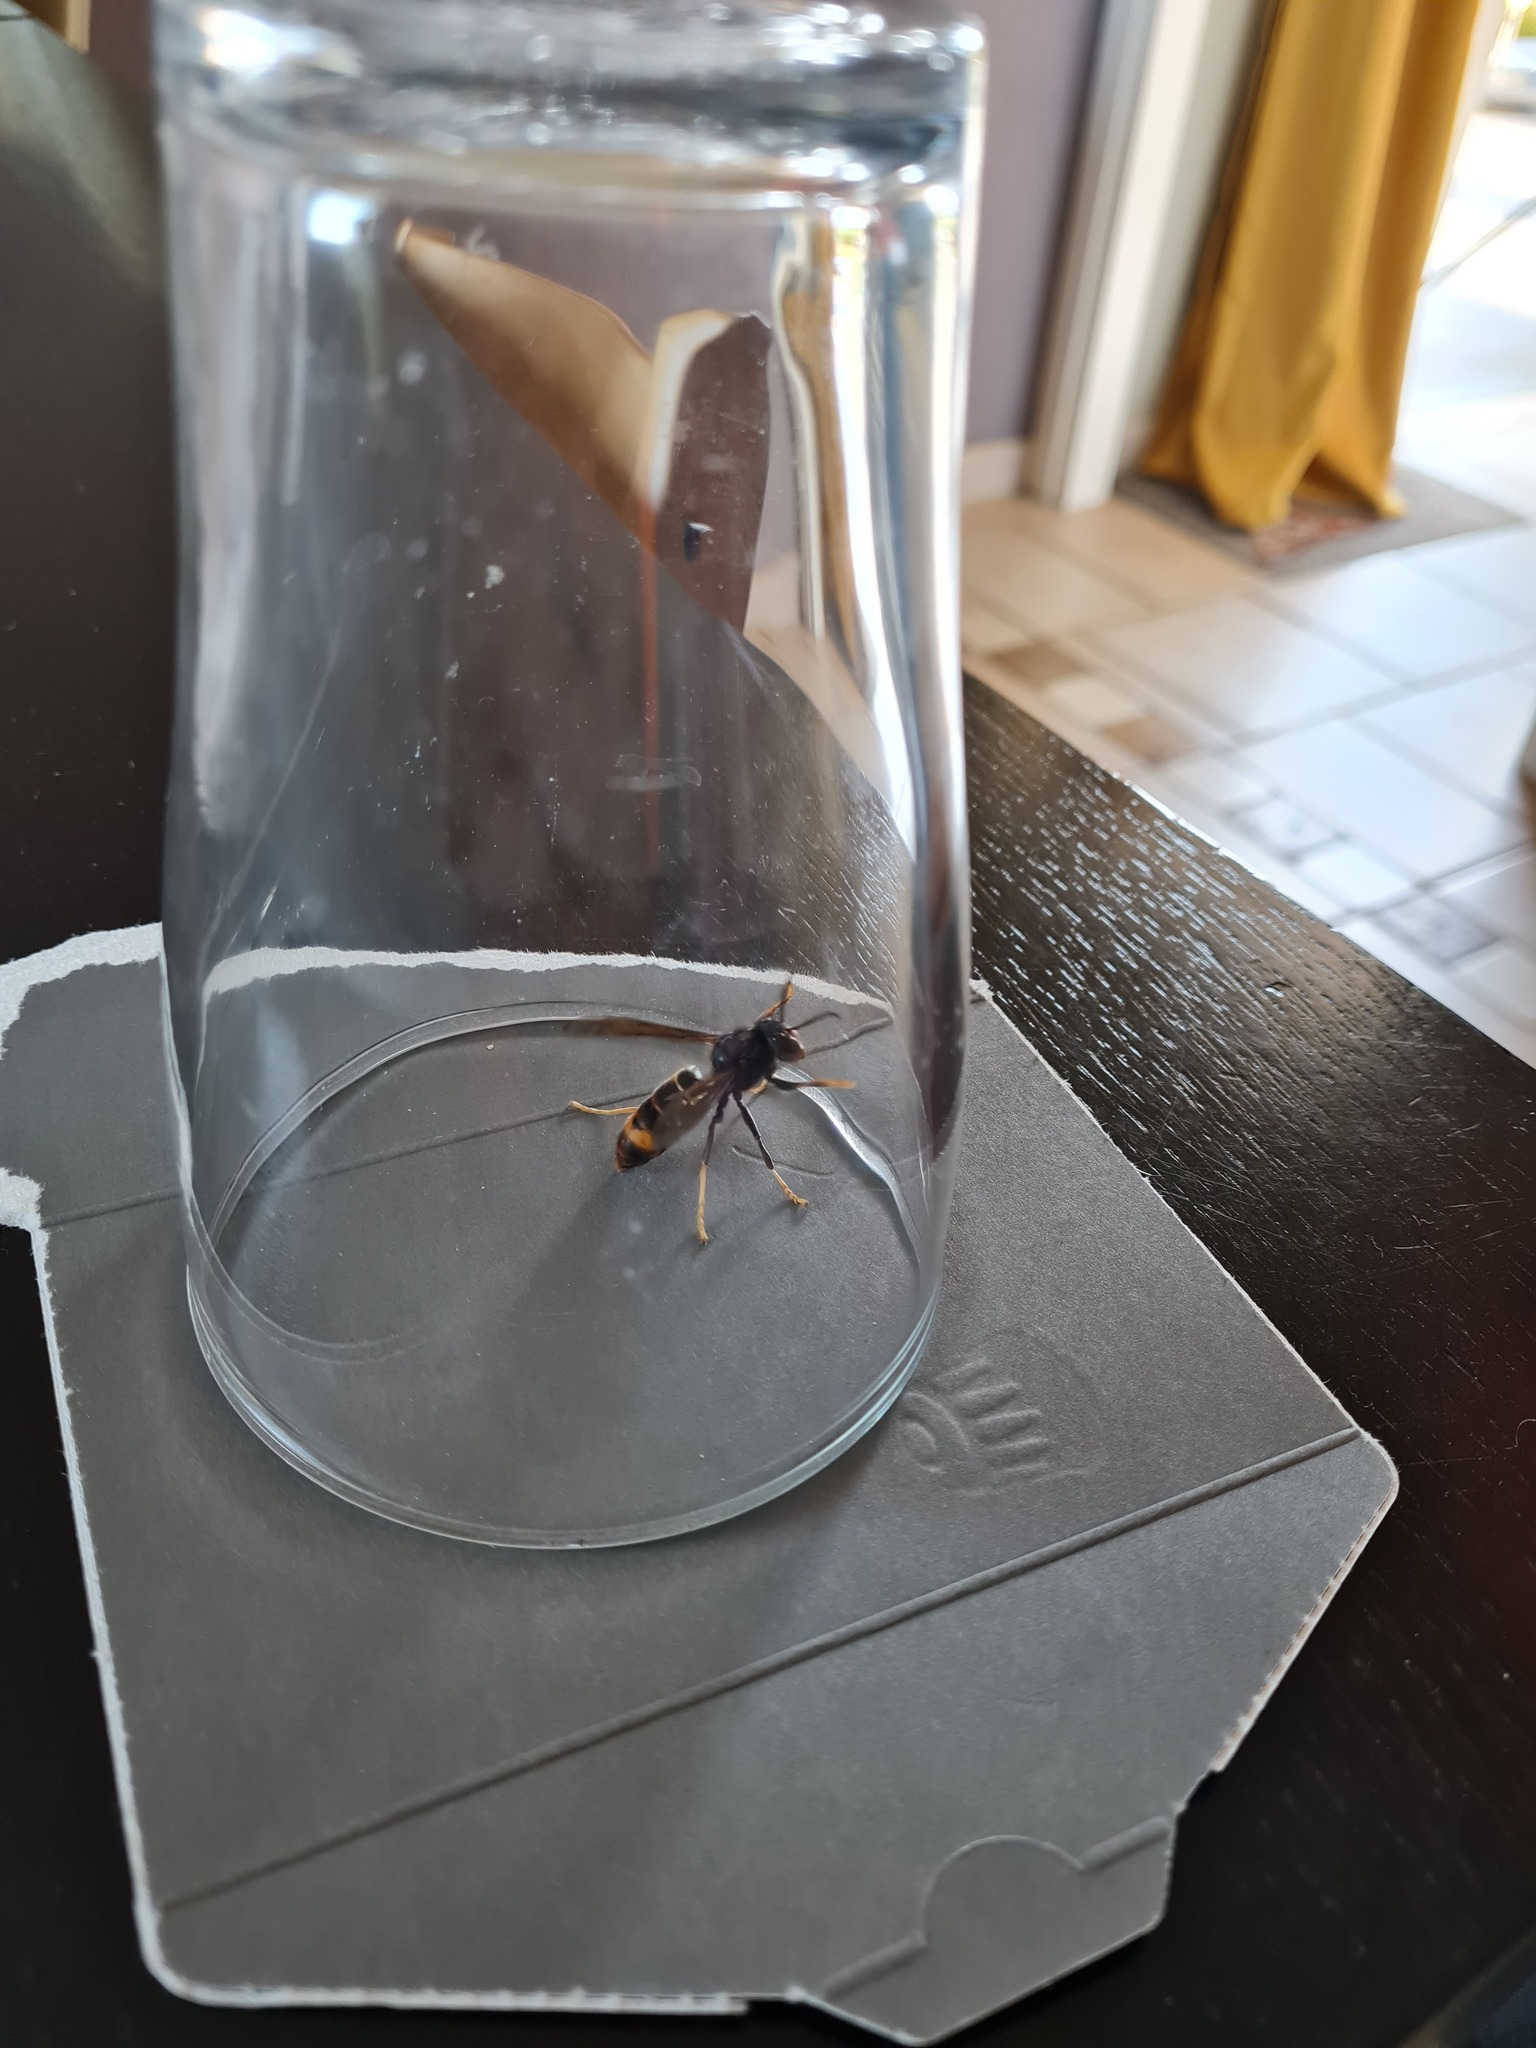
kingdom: Animalia
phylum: Arthropoda
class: Insecta
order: Hymenoptera
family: Vespidae
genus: Vespa
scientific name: Vespa velutina
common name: Asian hornet
